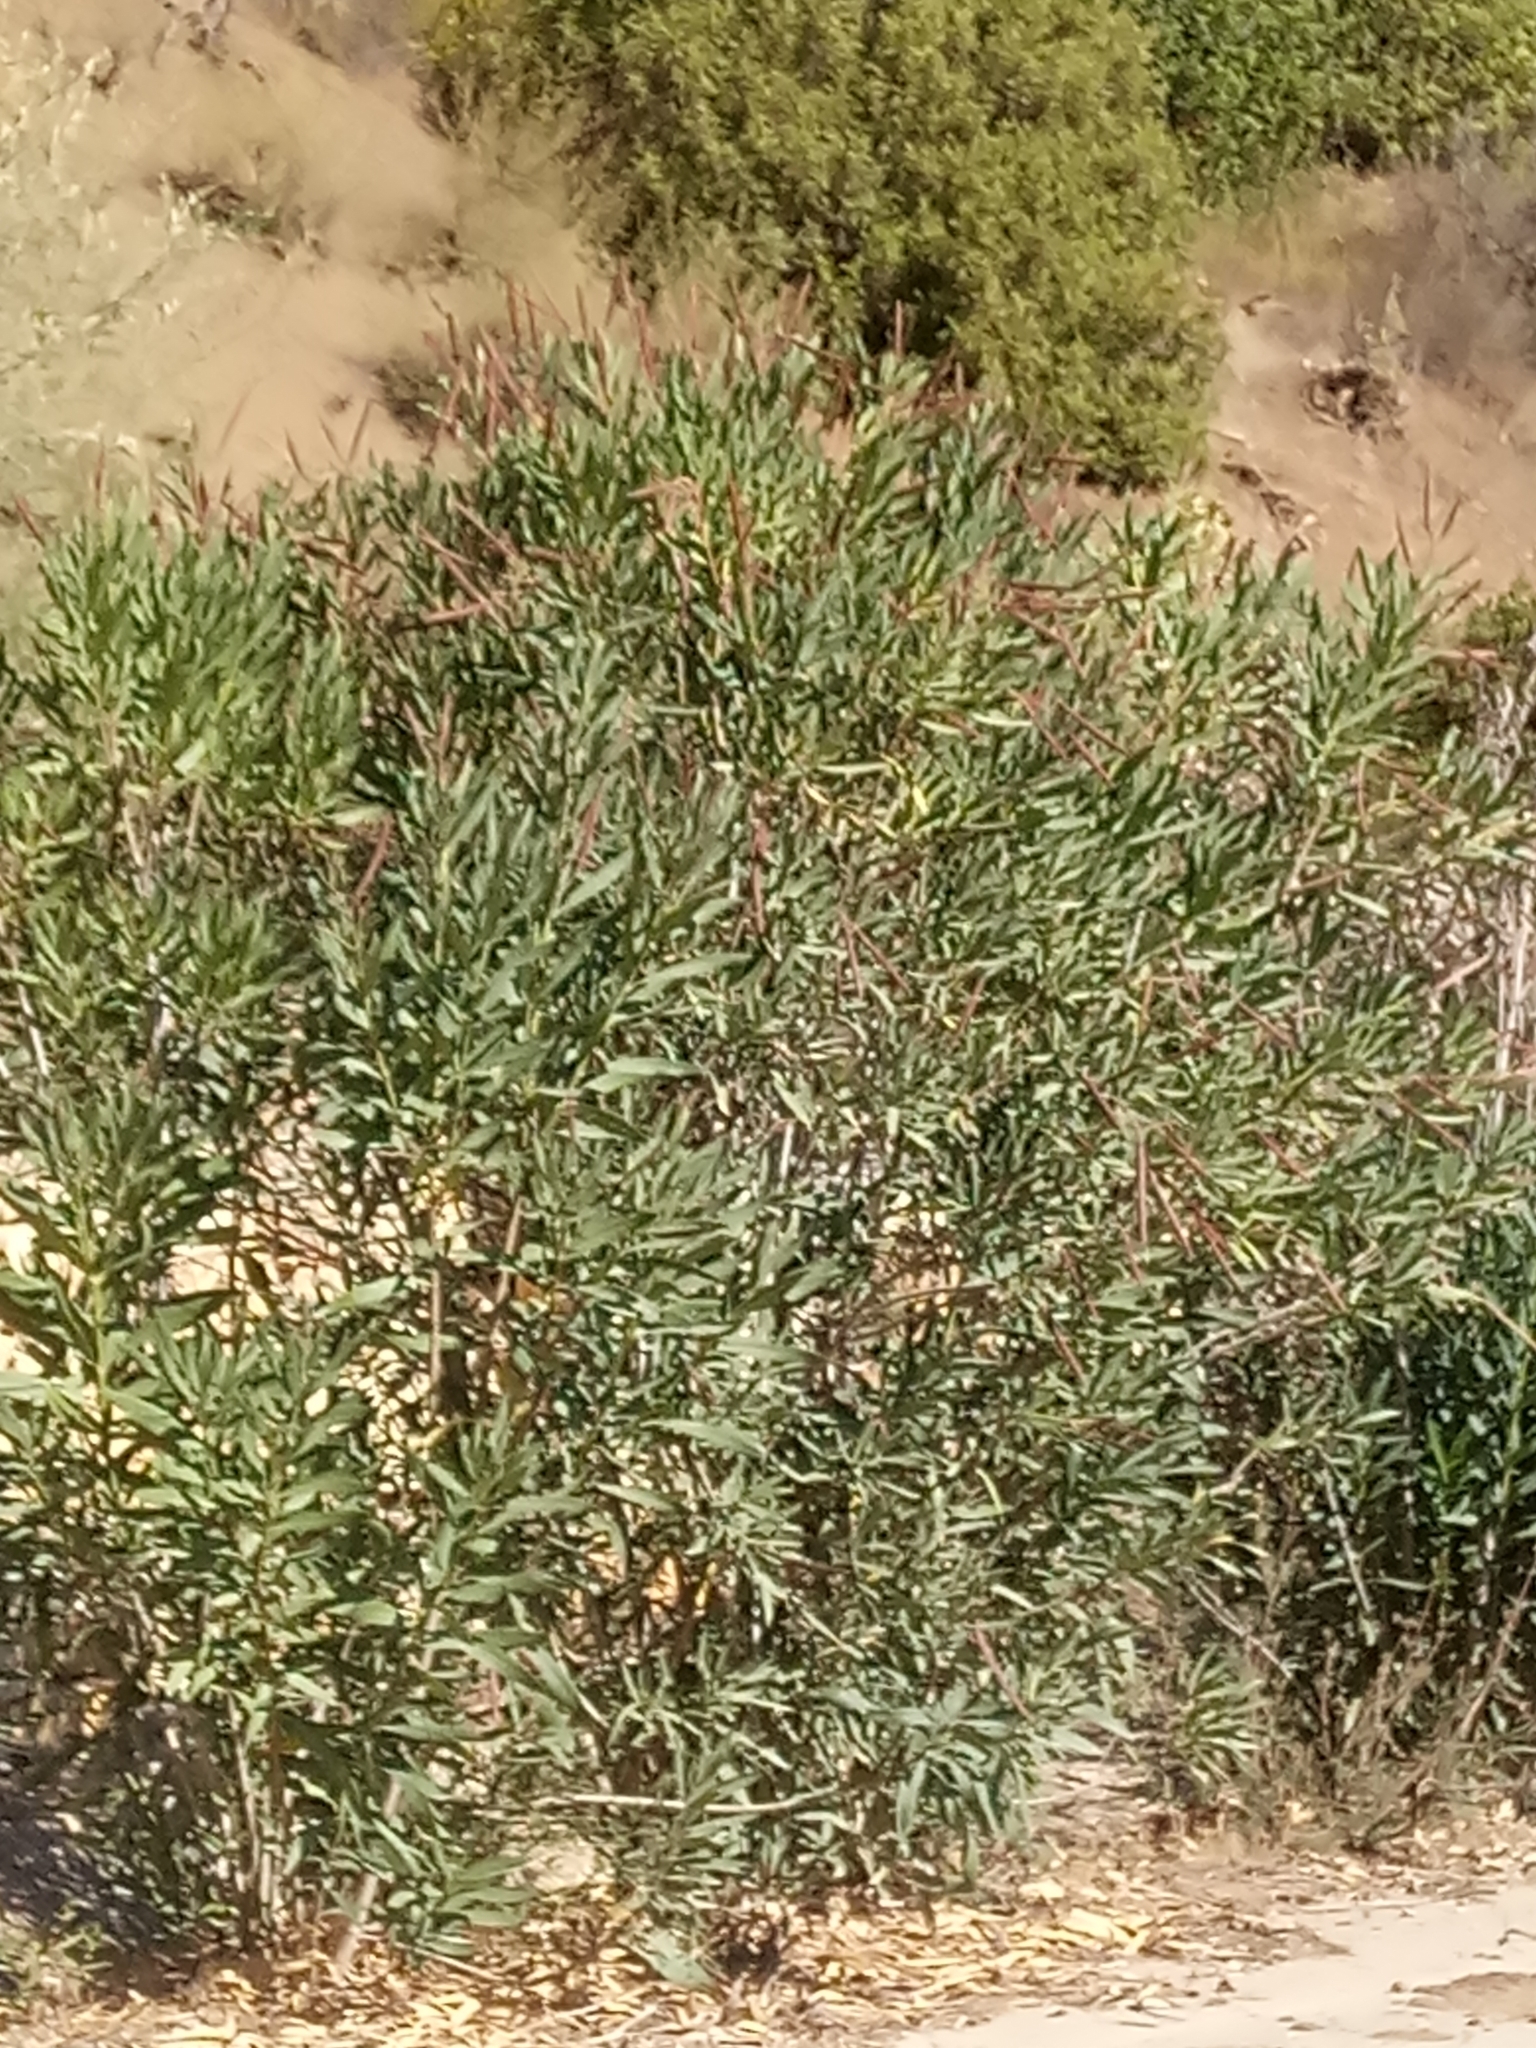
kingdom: Plantae
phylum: Tracheophyta
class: Magnoliopsida
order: Gentianales
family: Apocynaceae
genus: Nerium
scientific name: Nerium oleander
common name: Oleander
